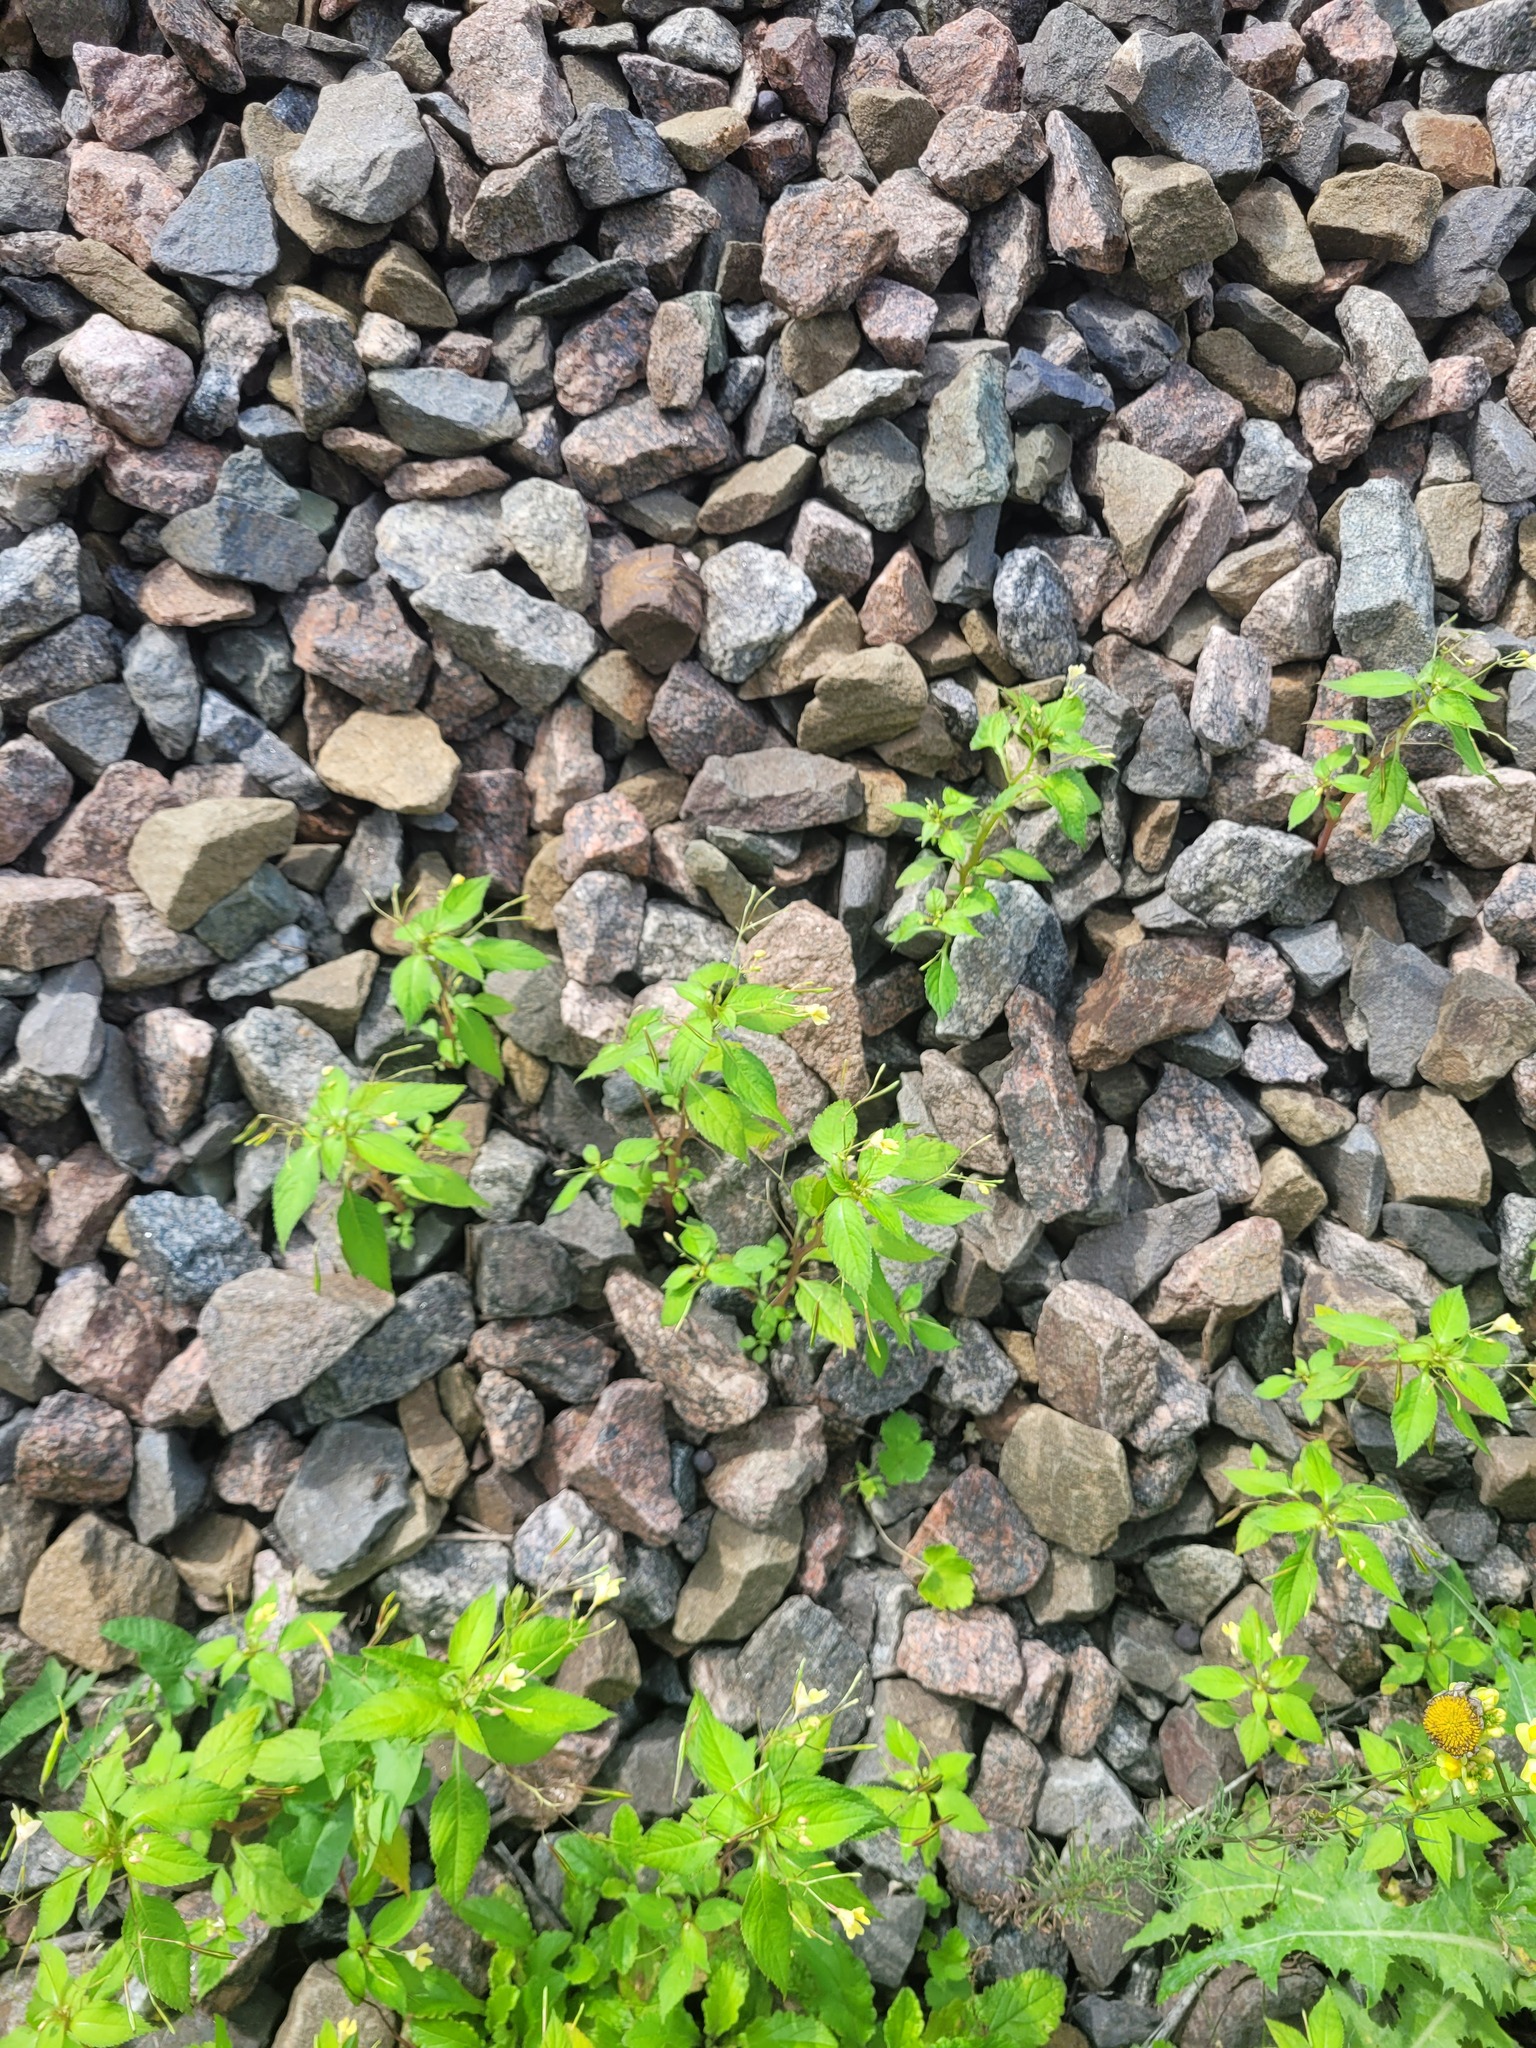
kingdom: Plantae
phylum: Tracheophyta
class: Magnoliopsida
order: Ericales
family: Balsaminaceae
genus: Impatiens
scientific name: Impatiens parviflora
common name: Small balsam
